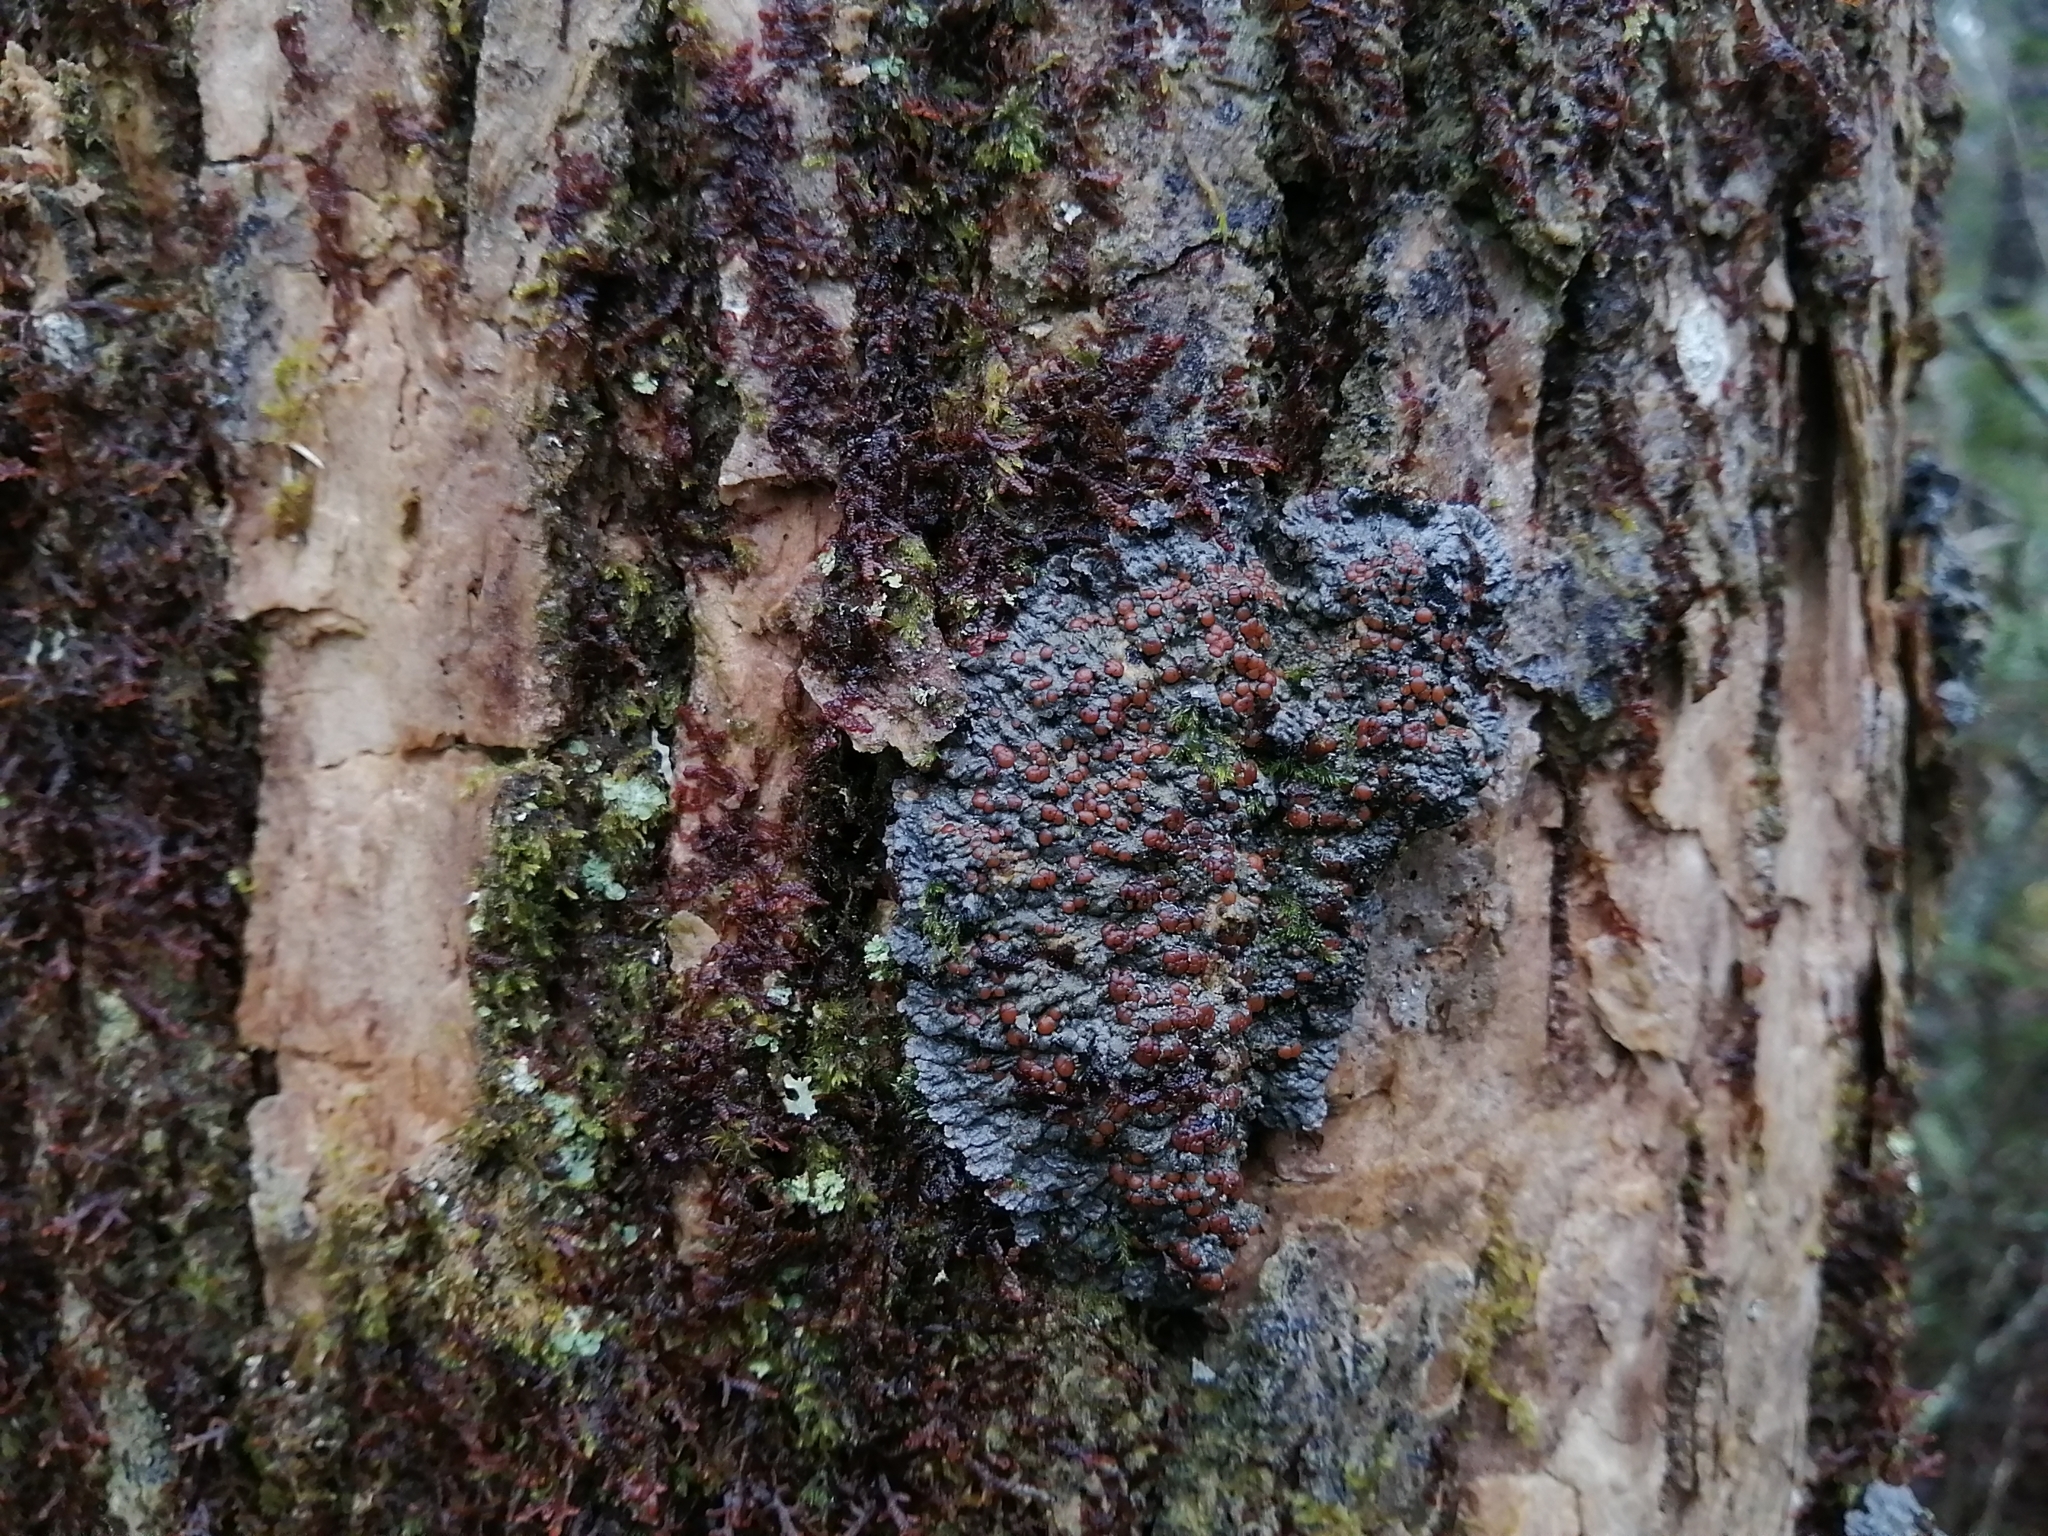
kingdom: Fungi
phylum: Ascomycota
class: Lecanoromycetes
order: Peltigerales
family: Pannariaceae
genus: Pectenia
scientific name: Pectenia plumbea
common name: Bladder stalks
